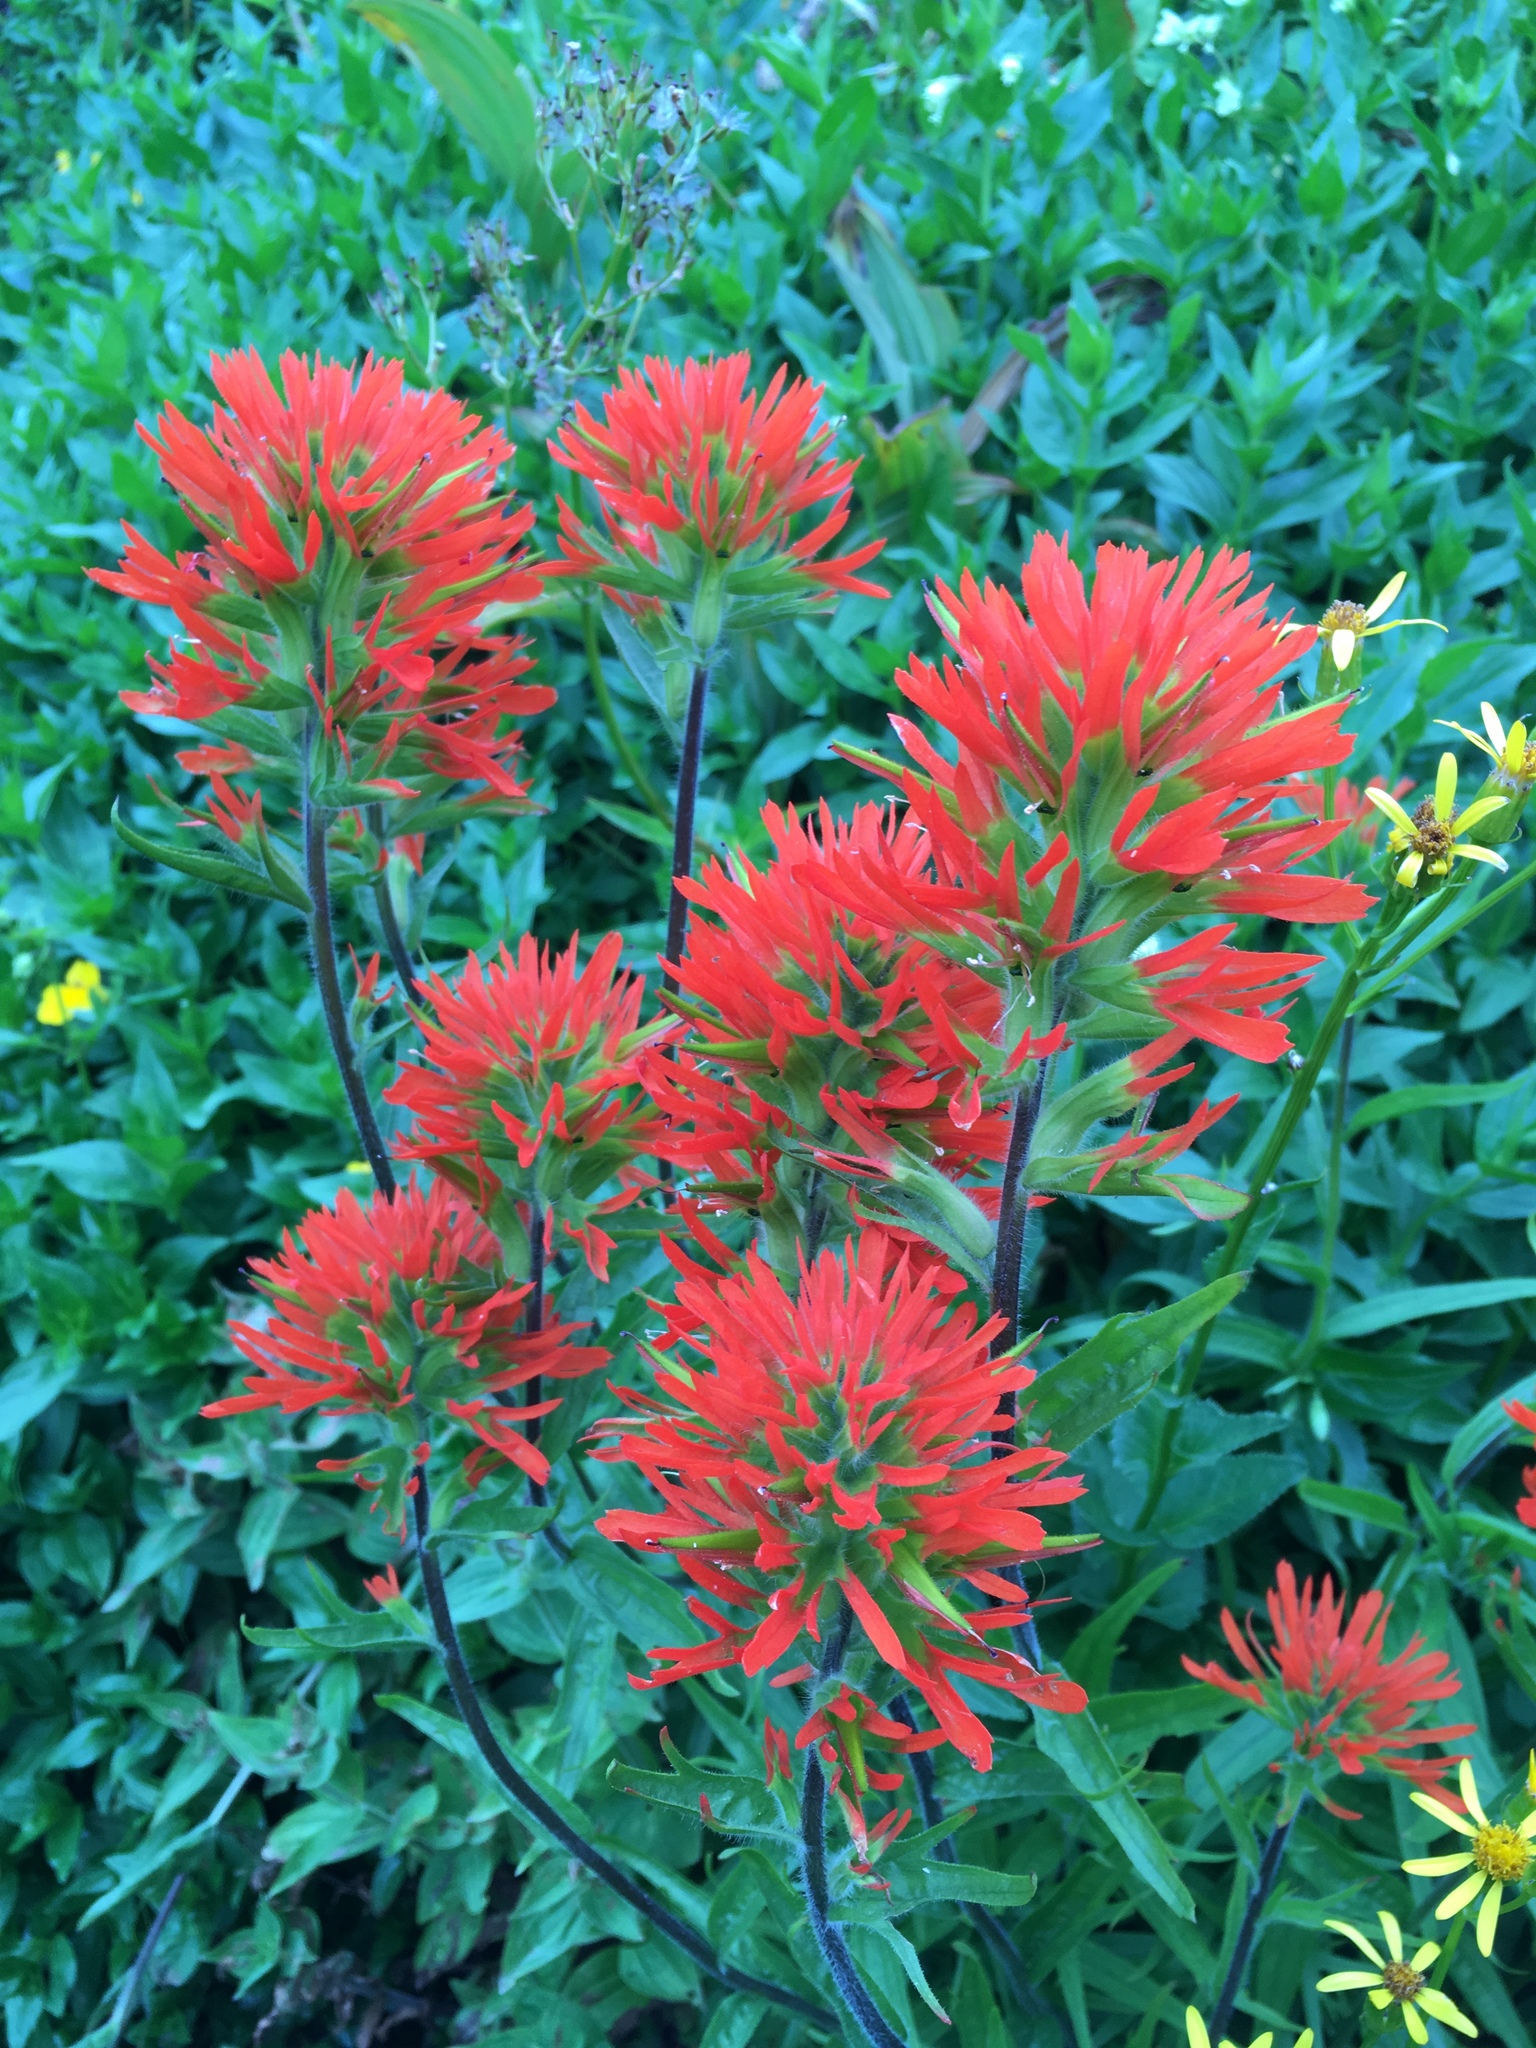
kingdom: Plantae
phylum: Tracheophyta
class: Magnoliopsida
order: Lamiales
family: Orobanchaceae
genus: Castilleja
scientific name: Castilleja suksdorfii
